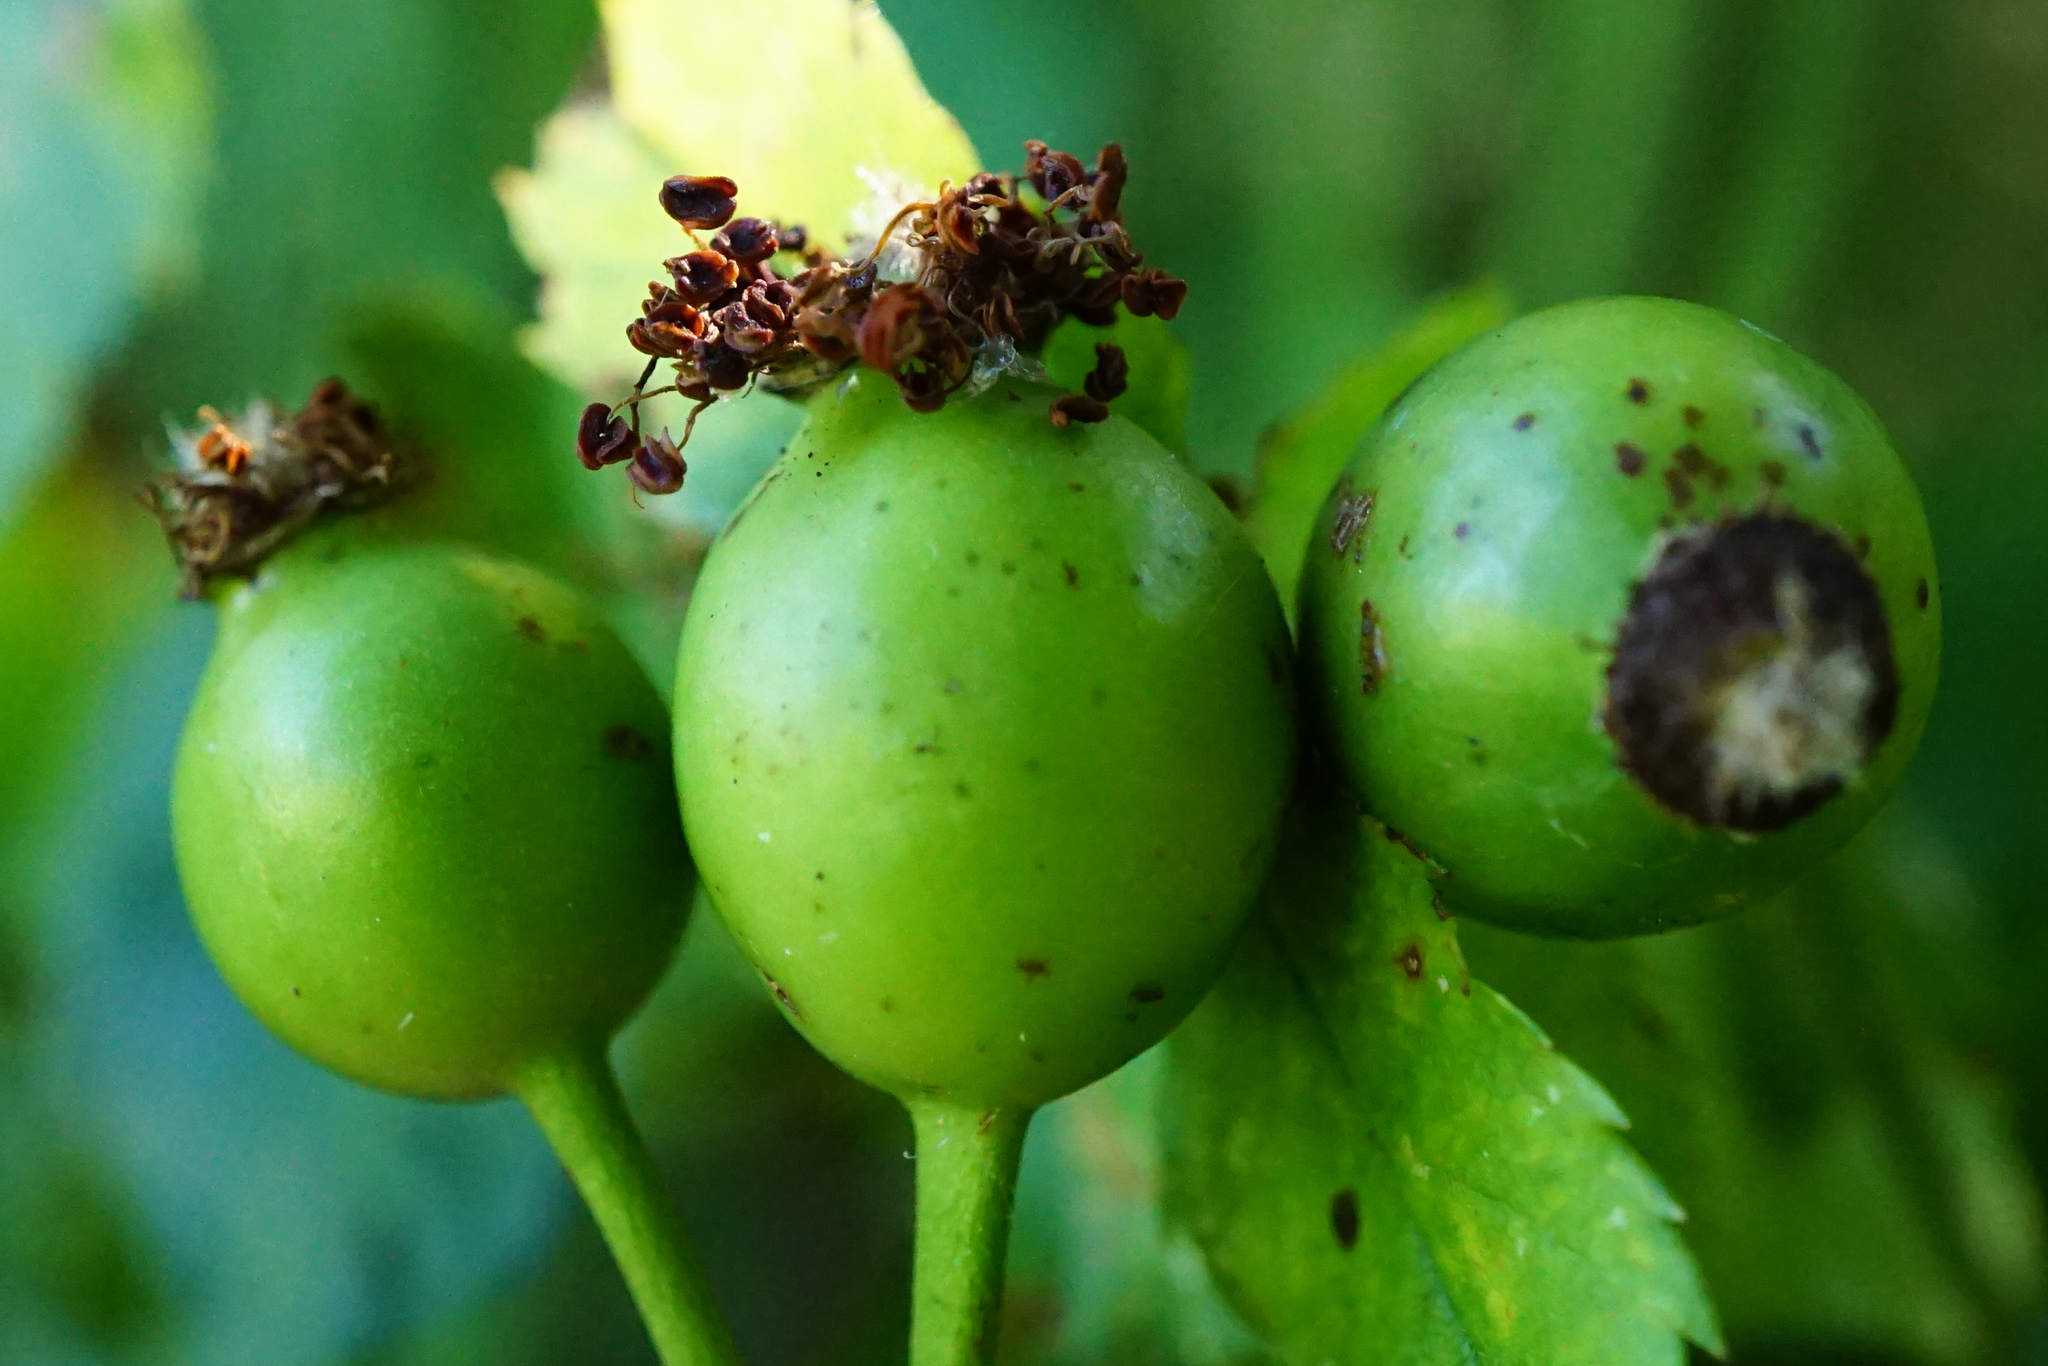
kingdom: Plantae
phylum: Tracheophyta
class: Magnoliopsida
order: Rosales
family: Rosaceae
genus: Rosa
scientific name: Rosa canina
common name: Dog rose
